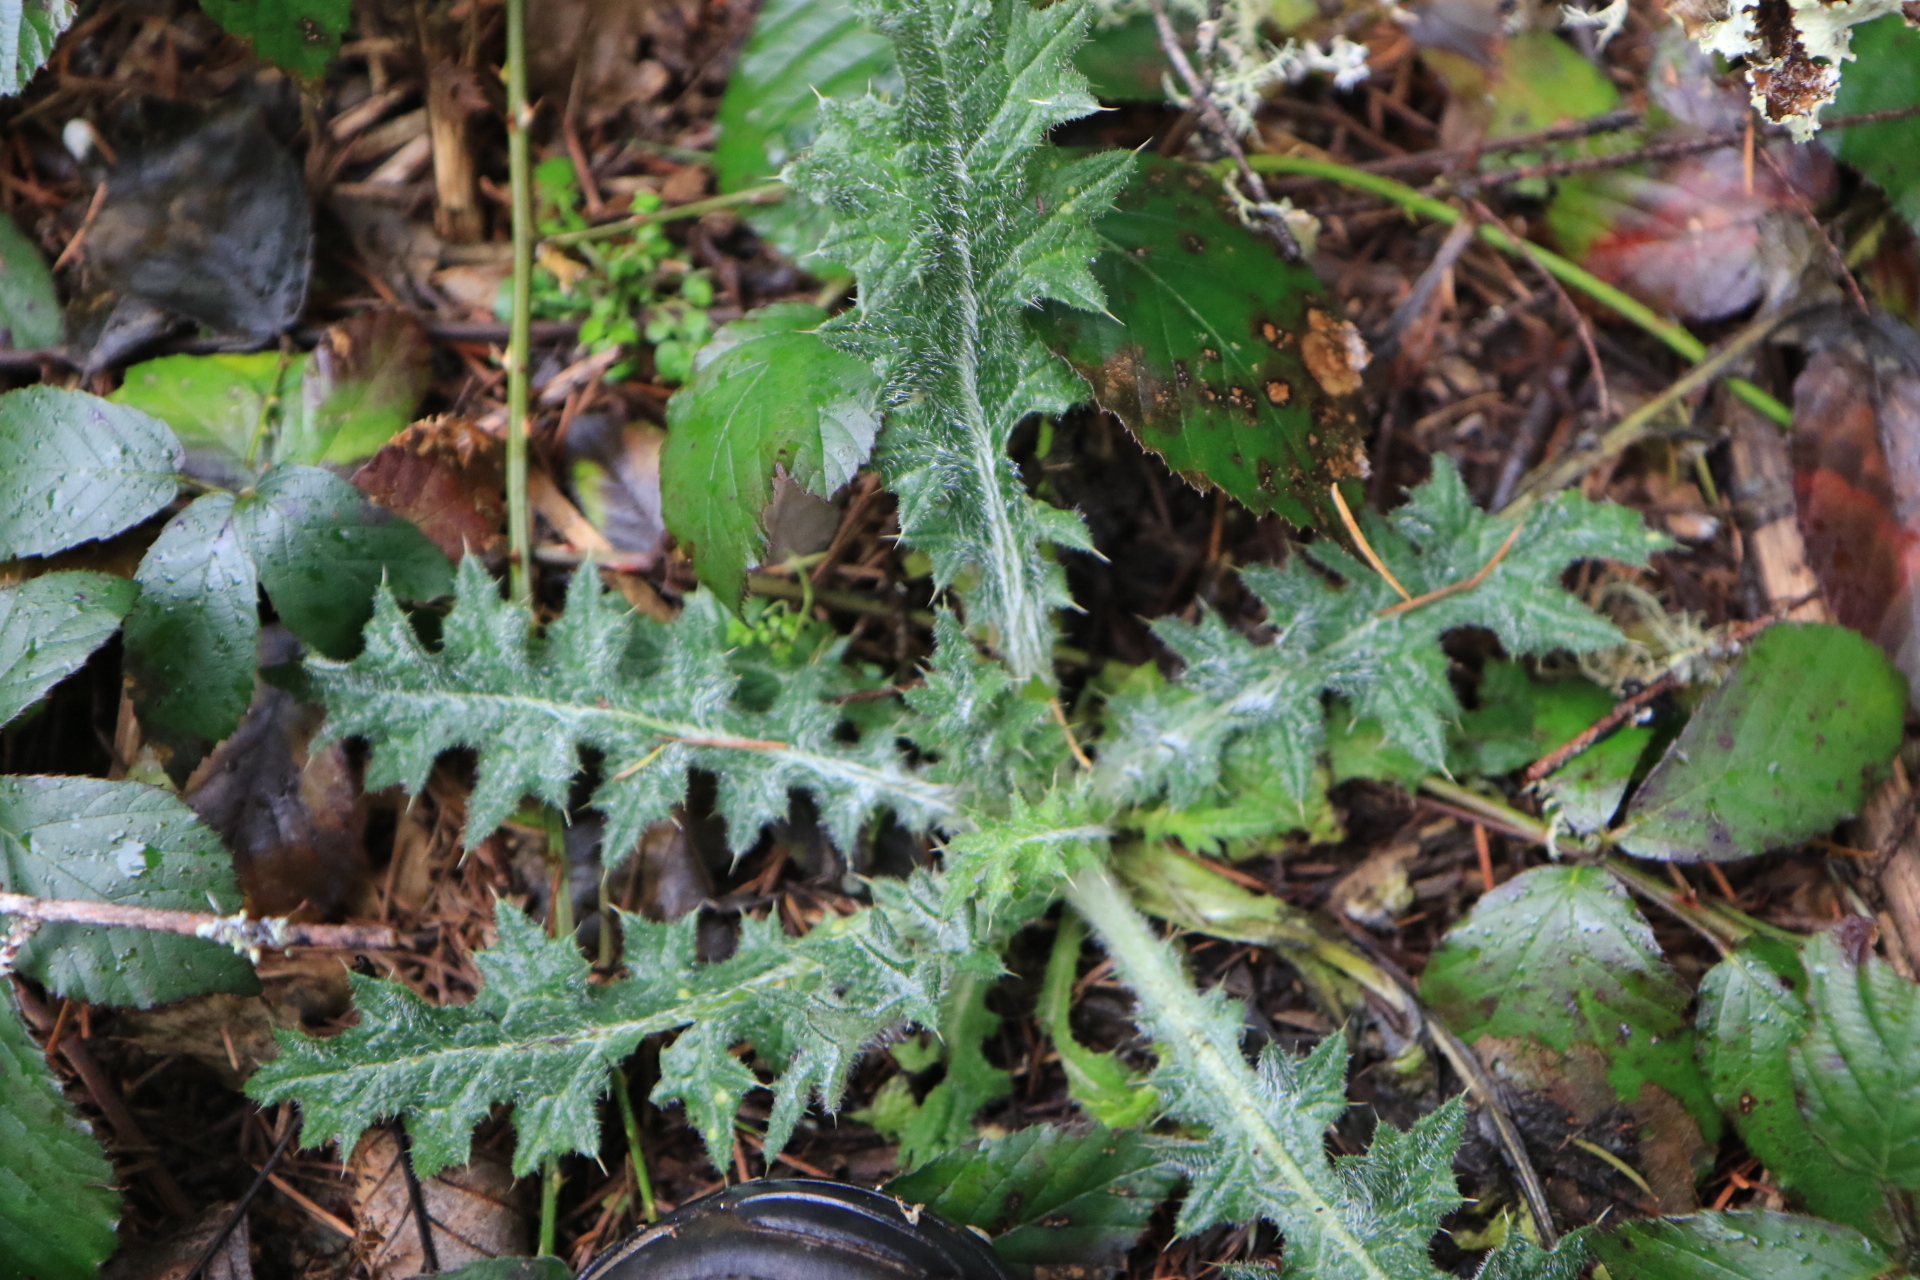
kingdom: Plantae
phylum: Tracheophyta
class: Magnoliopsida
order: Asterales
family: Asteraceae
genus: Cirsium
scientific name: Cirsium vulgare
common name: Bull thistle
